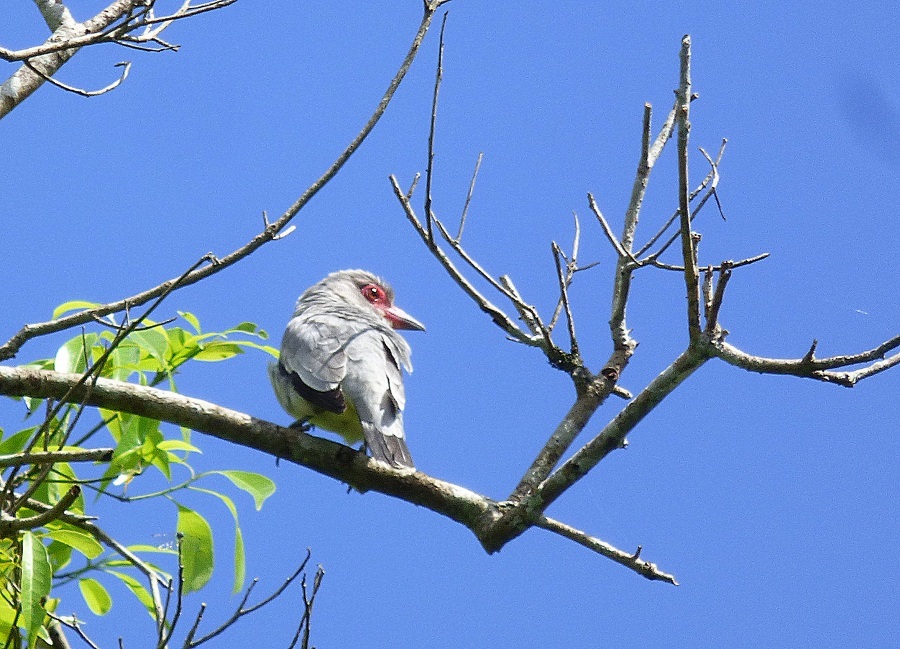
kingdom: Animalia
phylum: Chordata
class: Aves
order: Passeriformes
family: Cotingidae
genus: Tityra
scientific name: Tityra semifasciata
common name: Masked tityra
